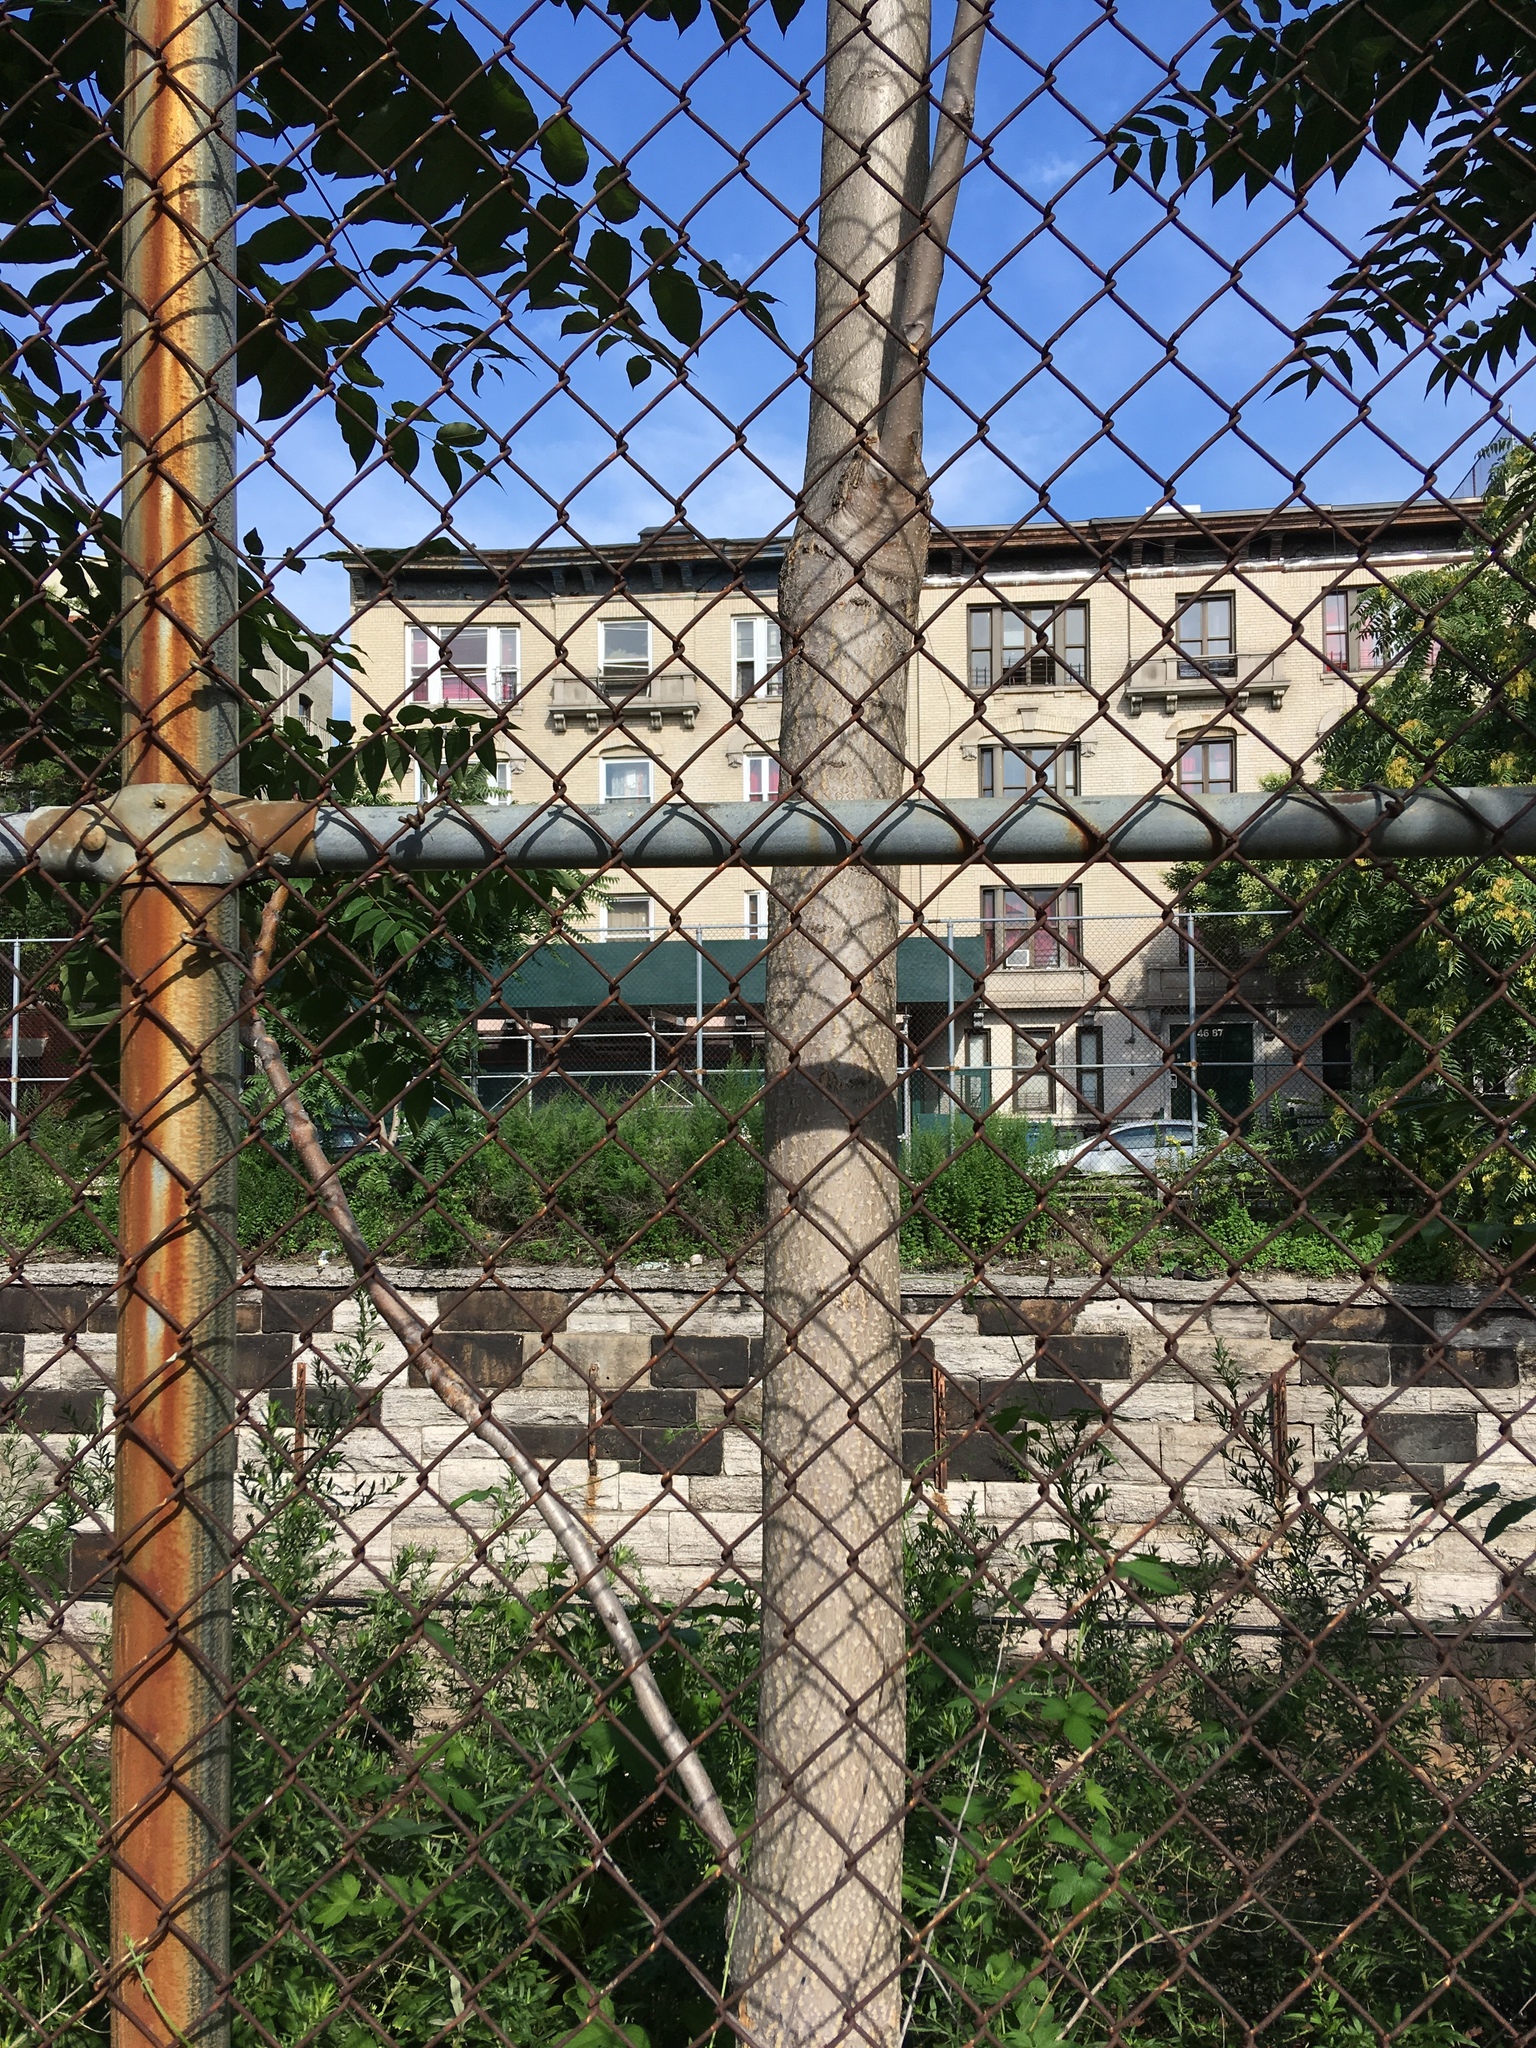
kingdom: Plantae
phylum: Tracheophyta
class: Magnoliopsida
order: Sapindales
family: Simaroubaceae
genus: Ailanthus
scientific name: Ailanthus altissima
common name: Tree-of-heaven
